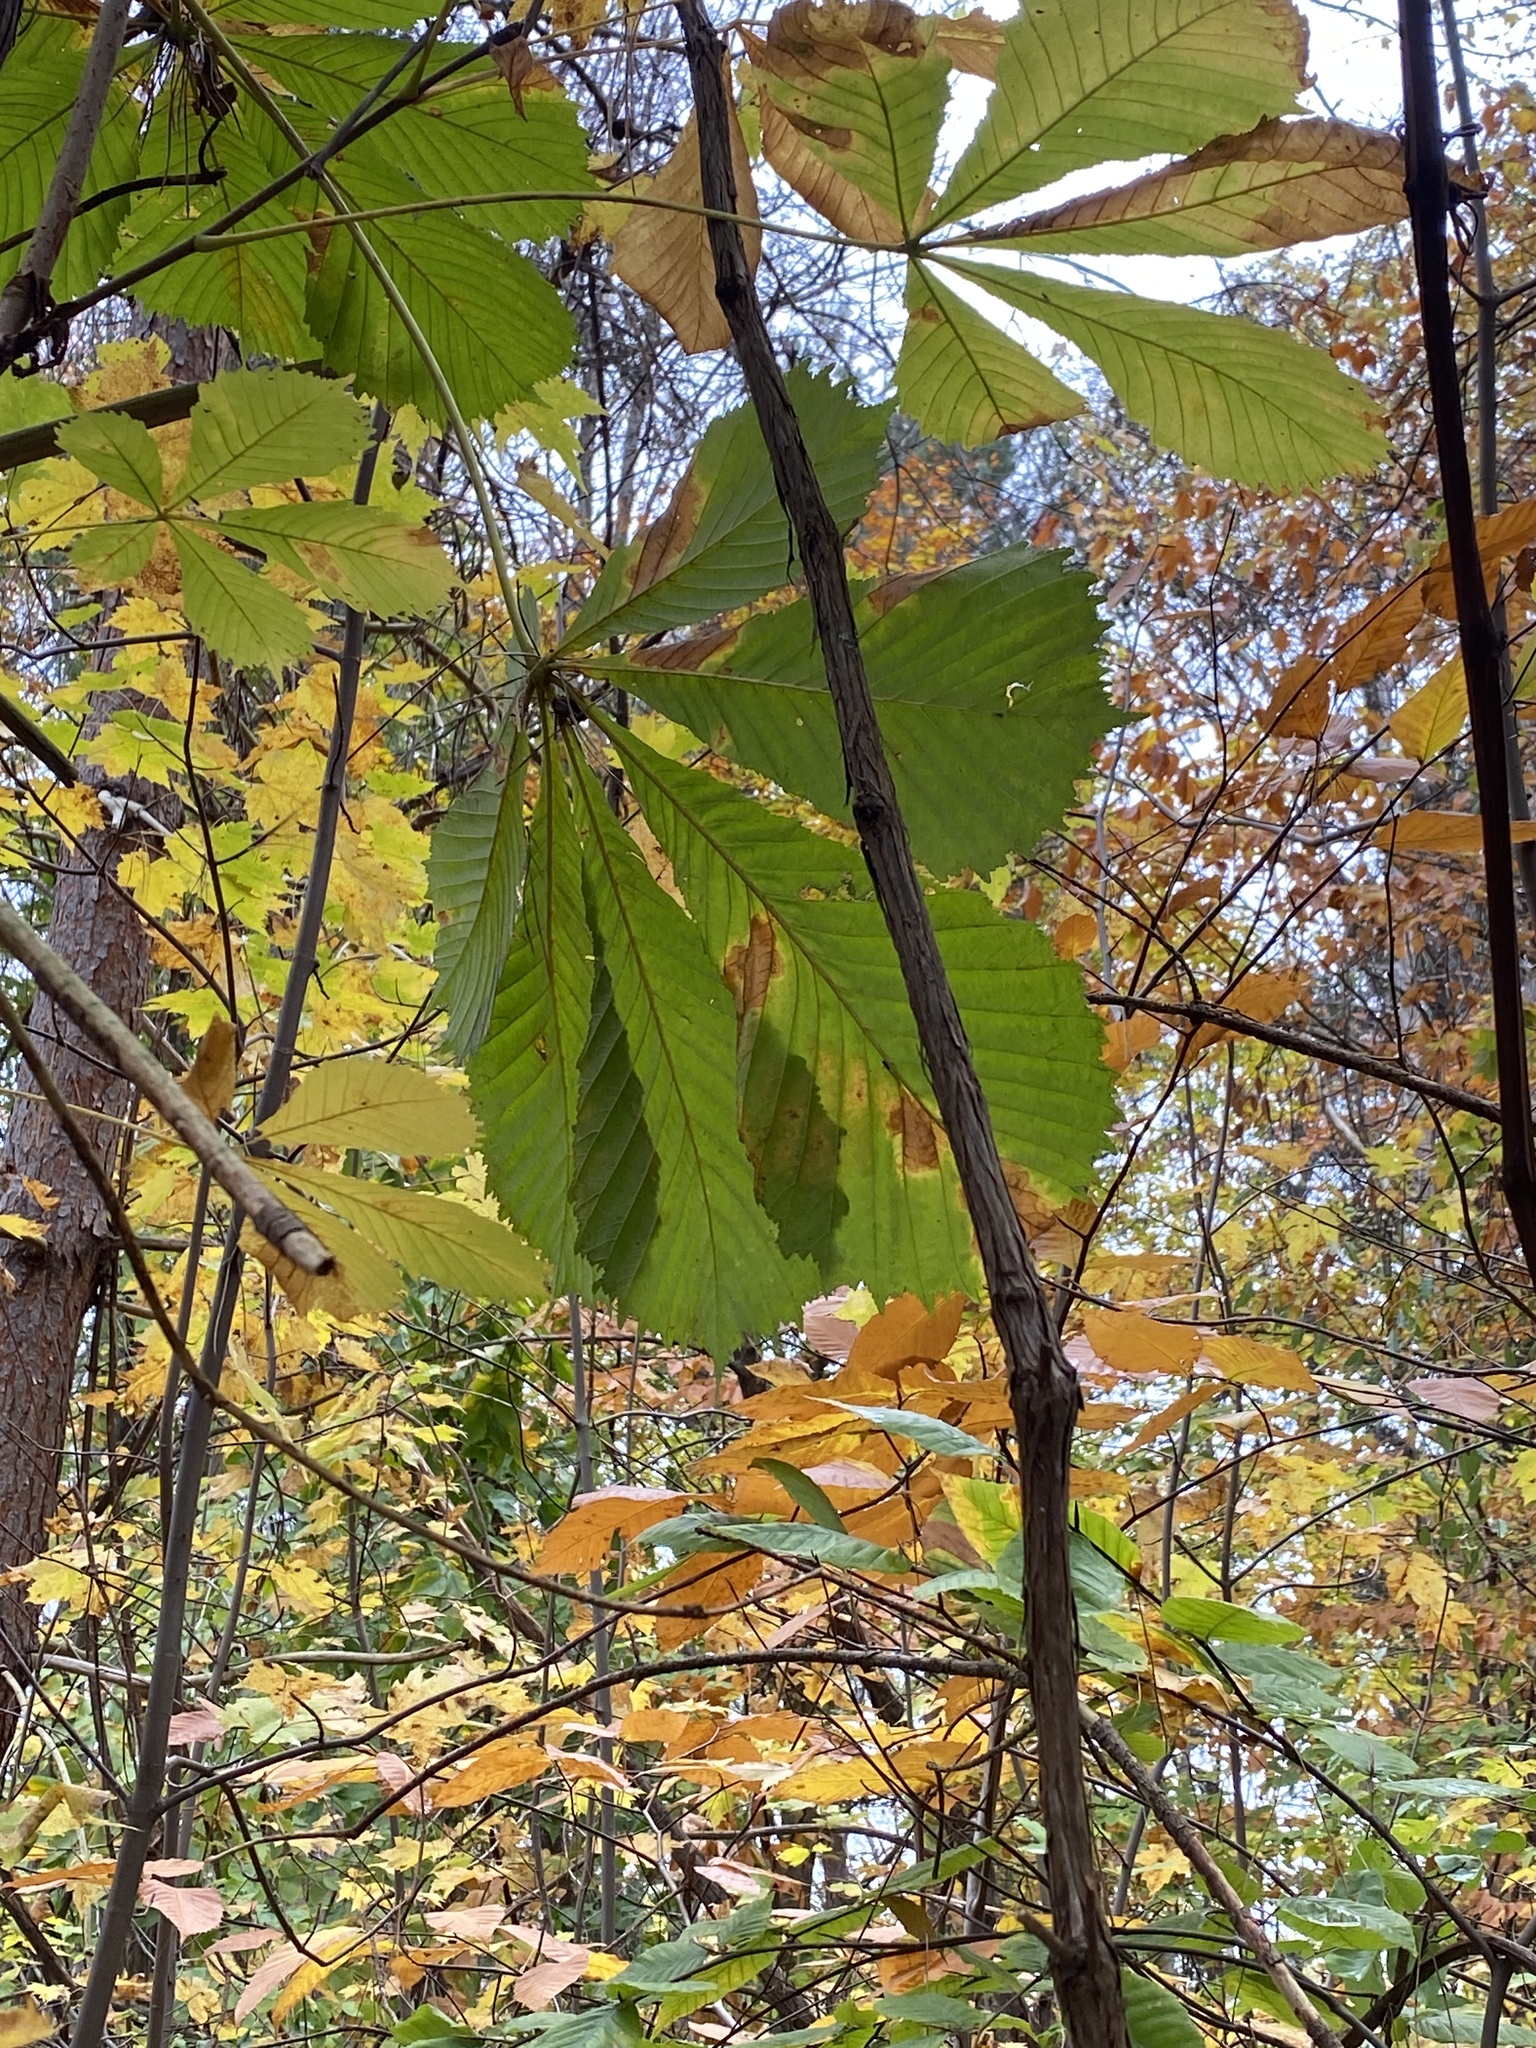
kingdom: Plantae
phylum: Tracheophyta
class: Magnoliopsida
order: Sapindales
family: Sapindaceae
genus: Aesculus
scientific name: Aesculus hippocastanum
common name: Horse-chestnut
